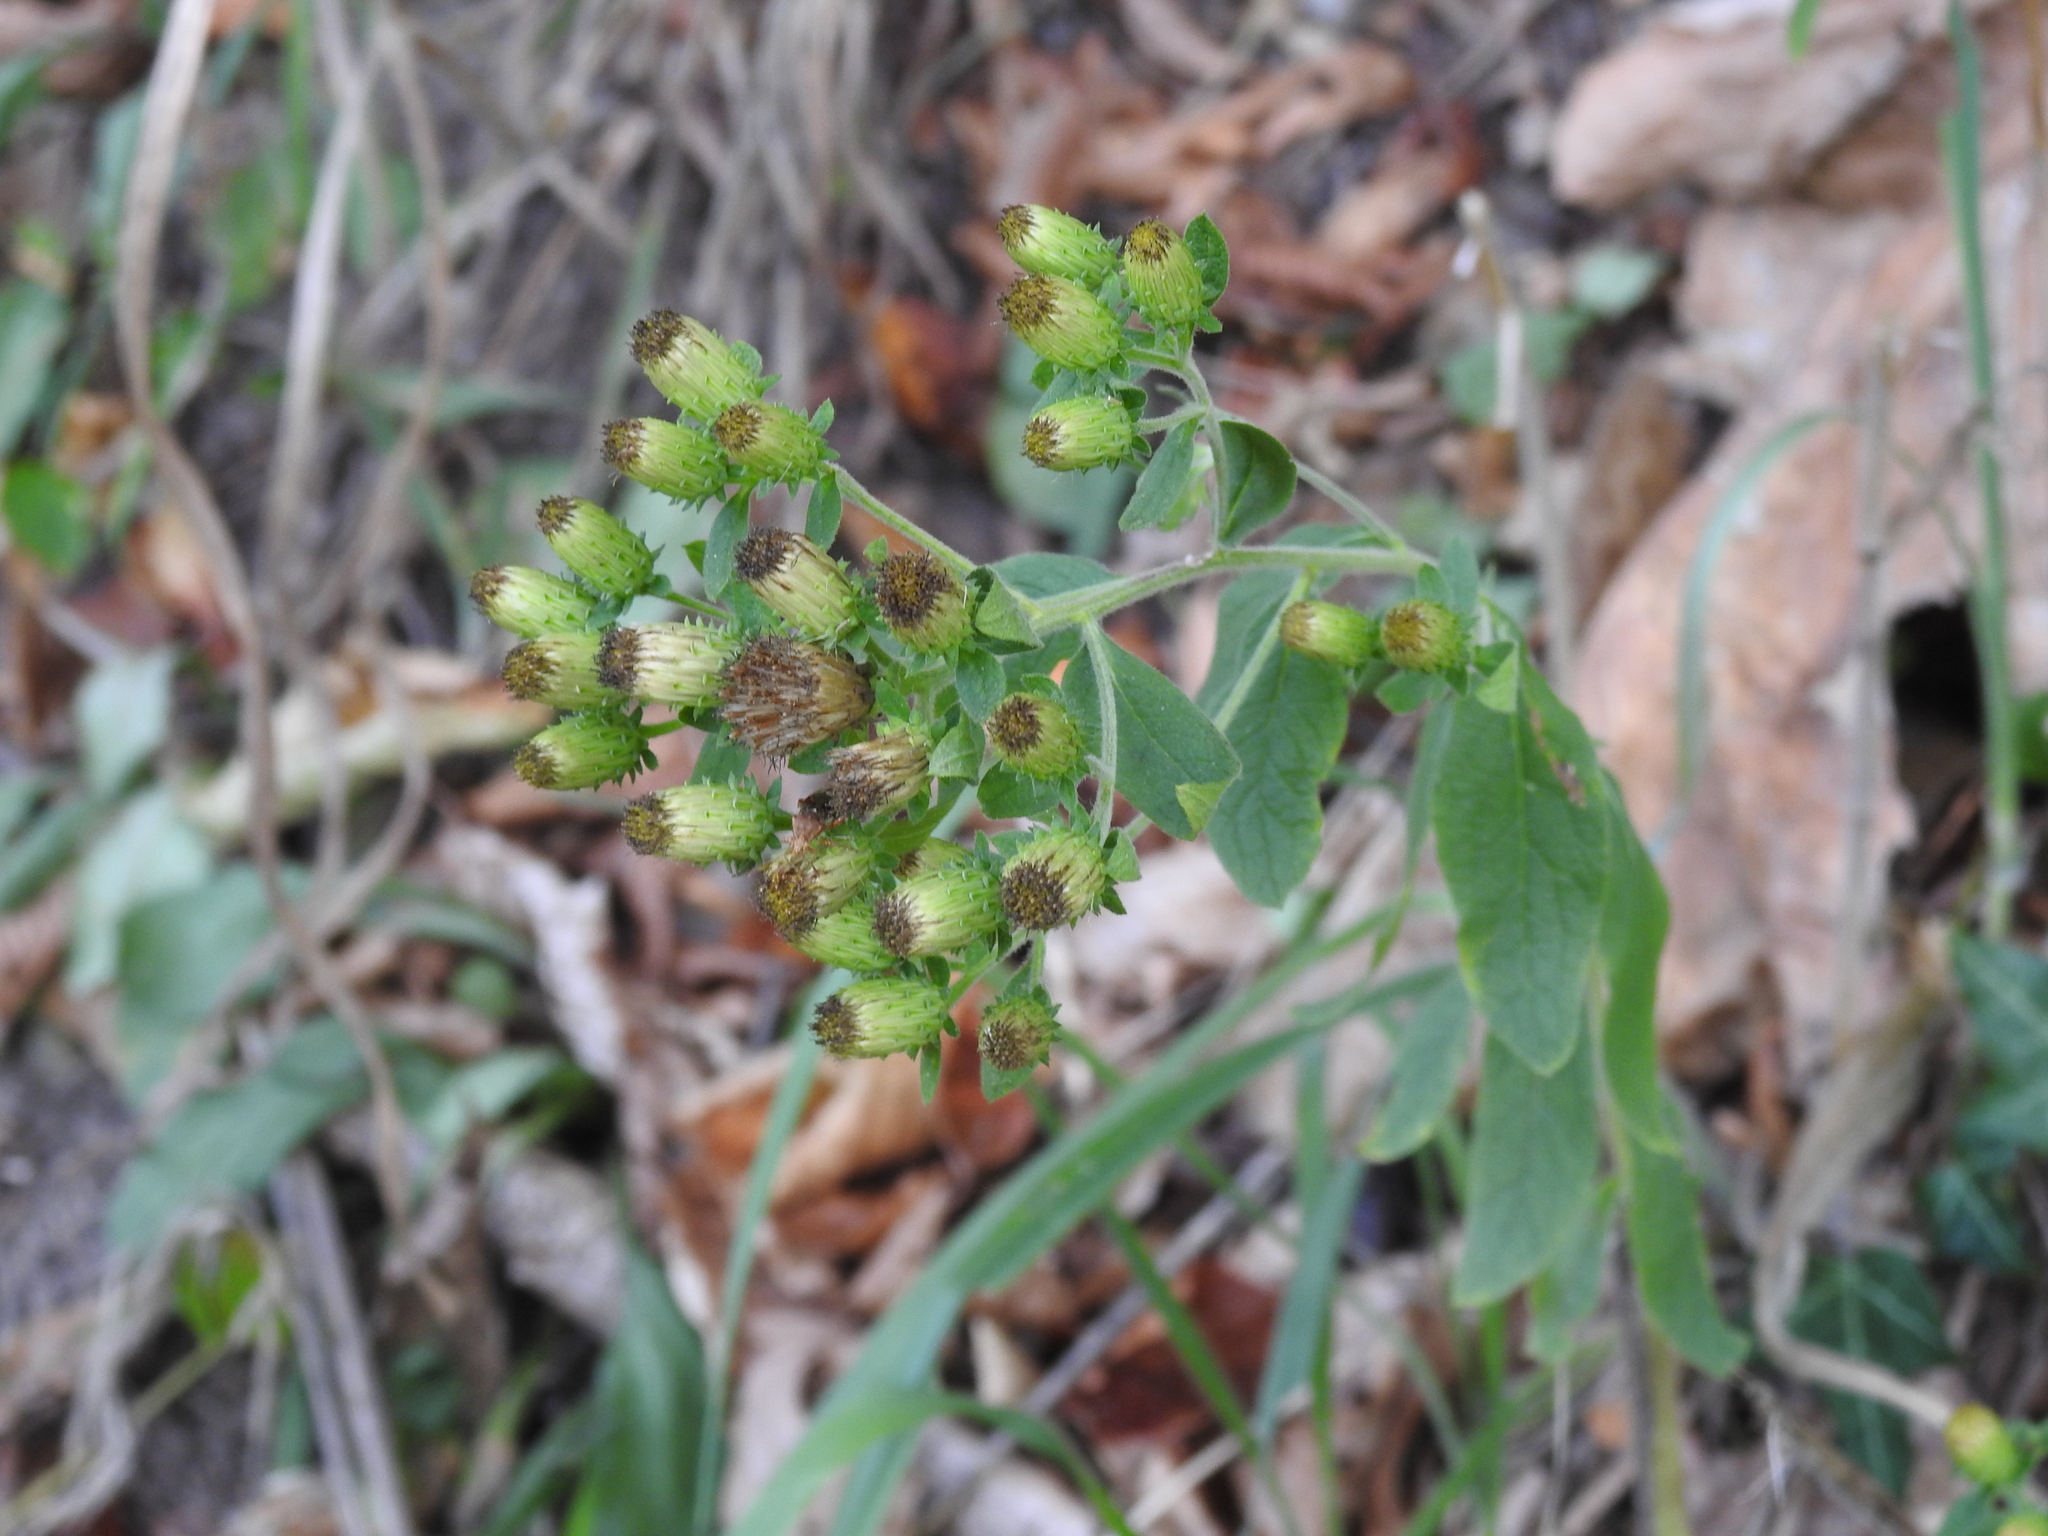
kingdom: Plantae
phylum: Tracheophyta
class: Magnoliopsida
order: Asterales
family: Asteraceae
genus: Pentanema
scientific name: Pentanema squarrosum
